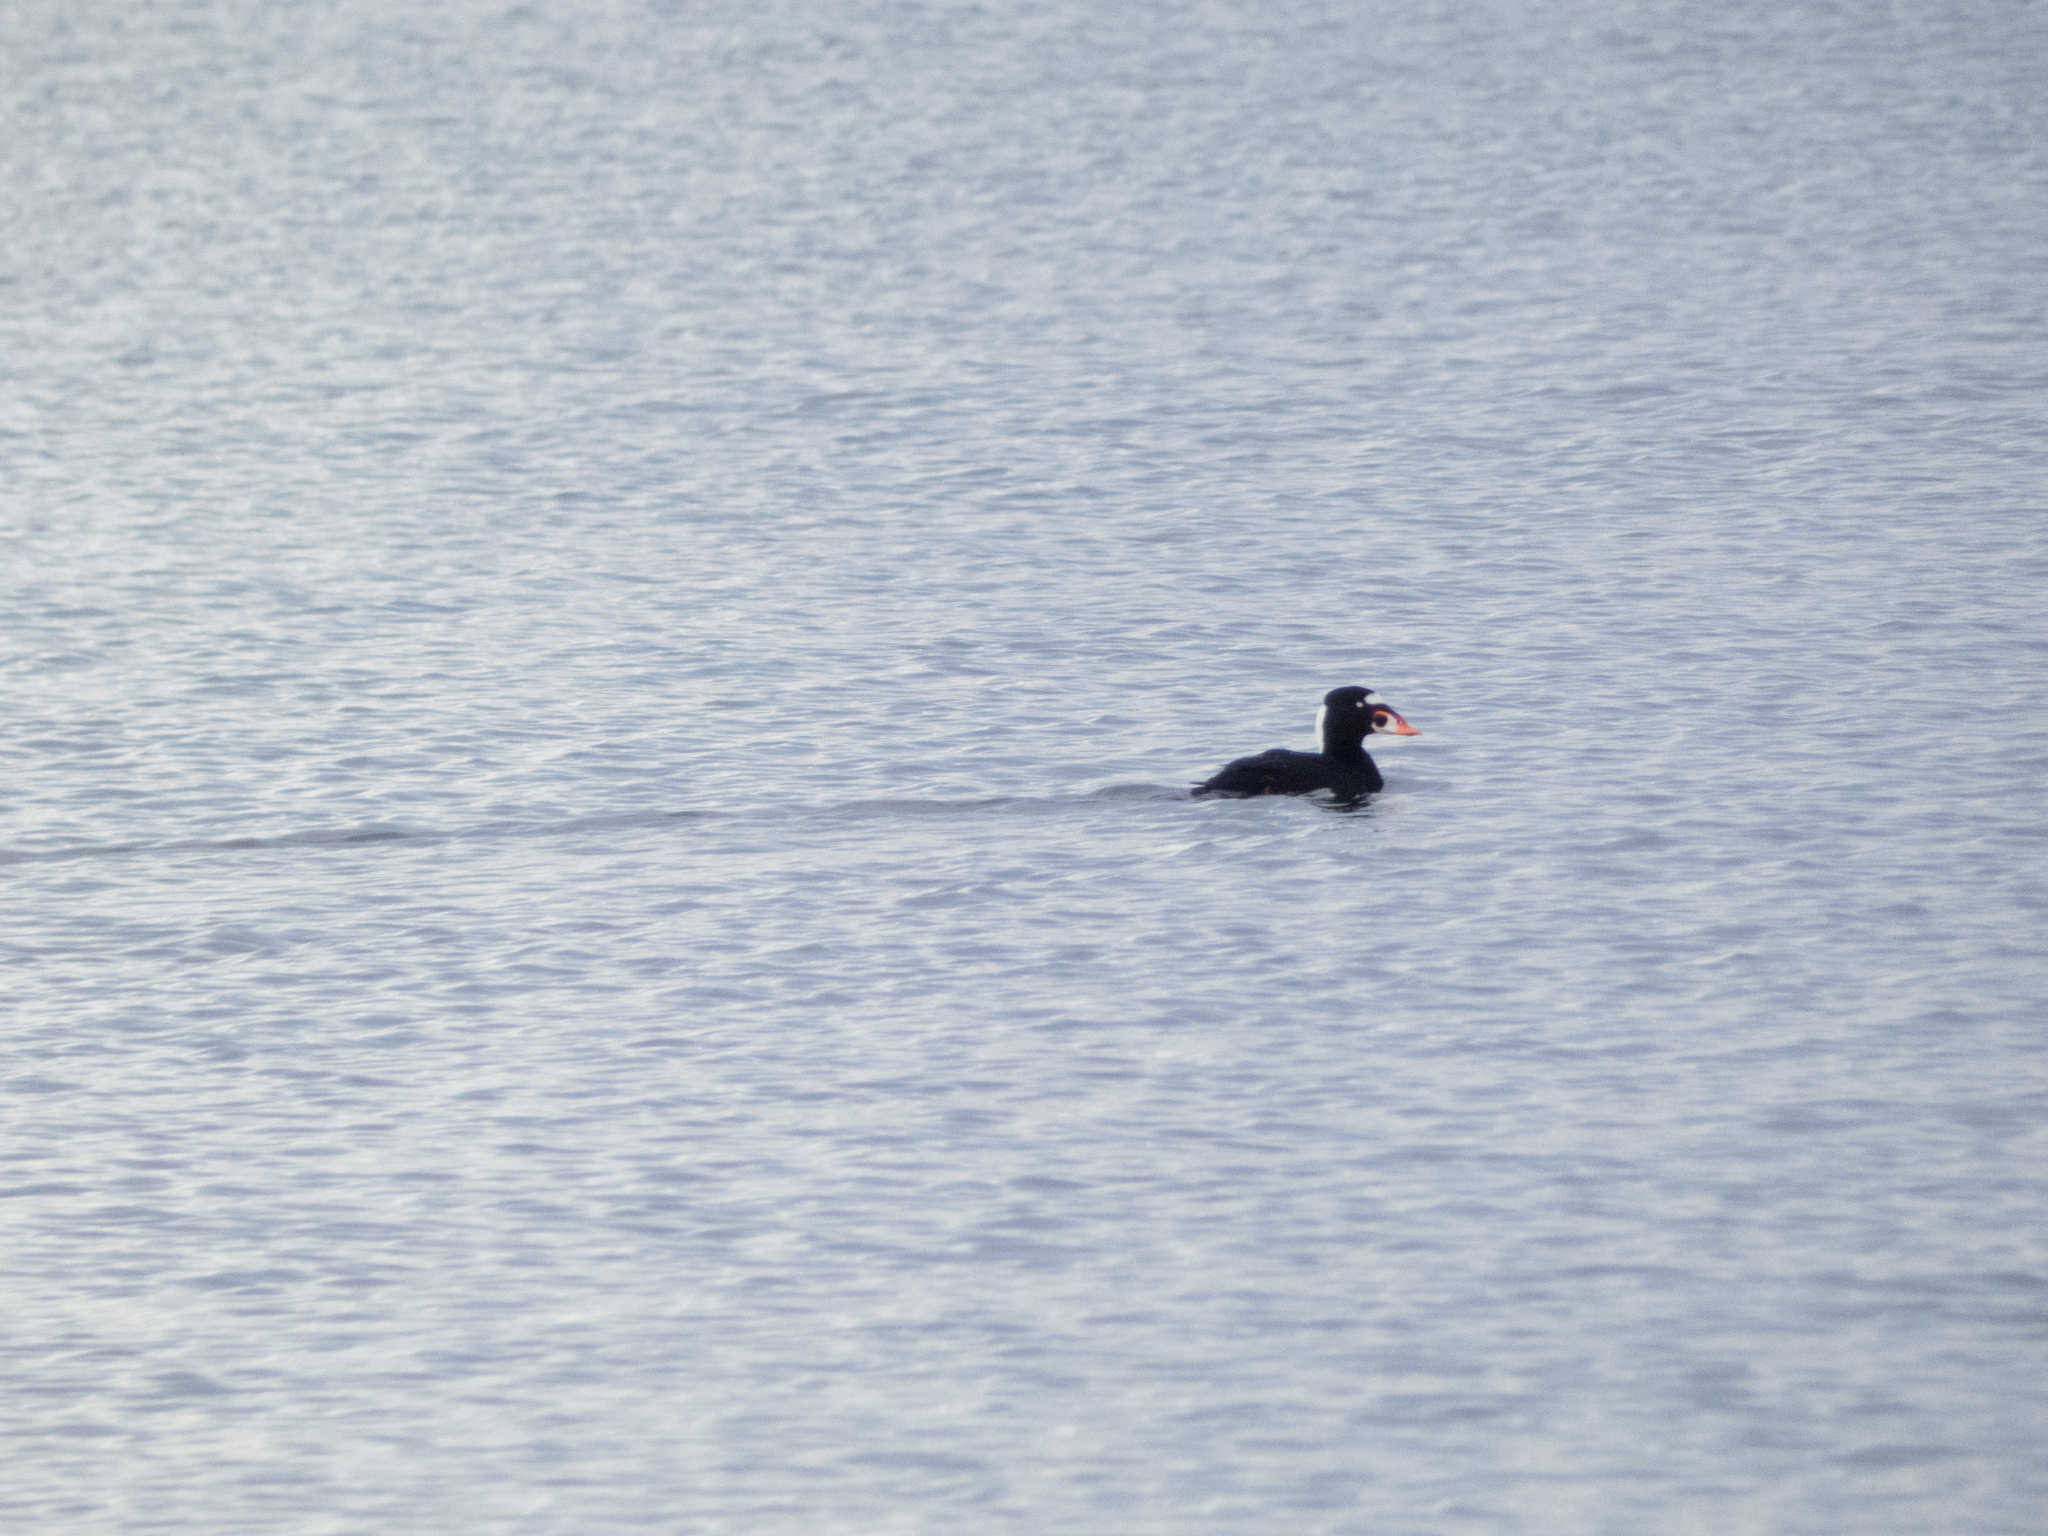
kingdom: Animalia
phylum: Chordata
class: Aves
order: Anseriformes
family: Anatidae
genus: Melanitta
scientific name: Melanitta perspicillata
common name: Surf scoter
